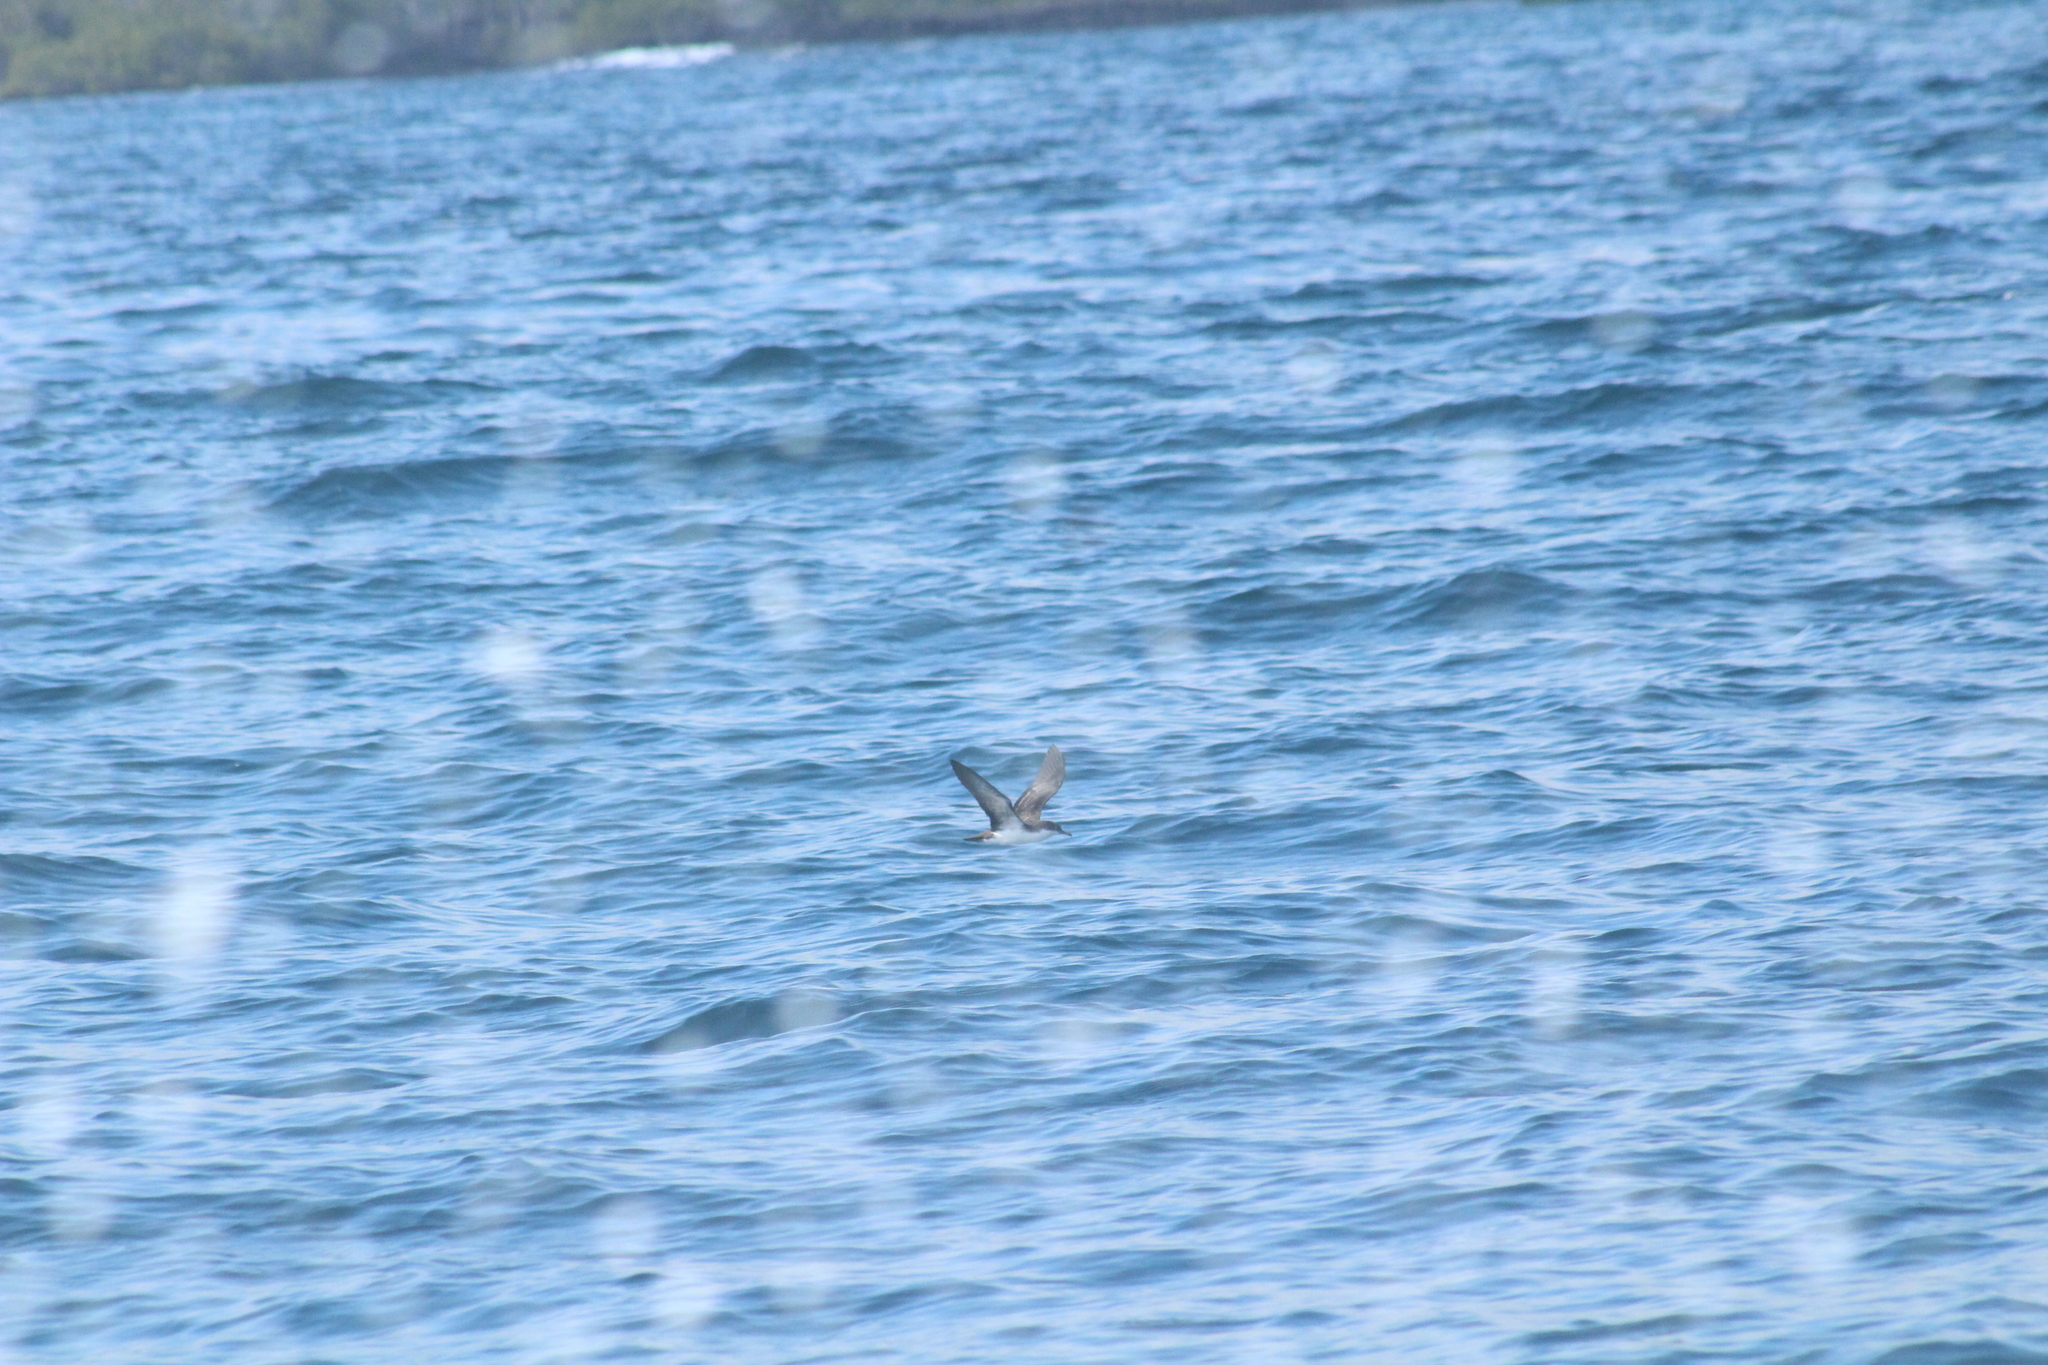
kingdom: Animalia
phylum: Chordata
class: Aves
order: Procellariiformes
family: Procellariidae
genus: Puffinus
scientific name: Puffinus subalaris
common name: Galapagos shearwater
